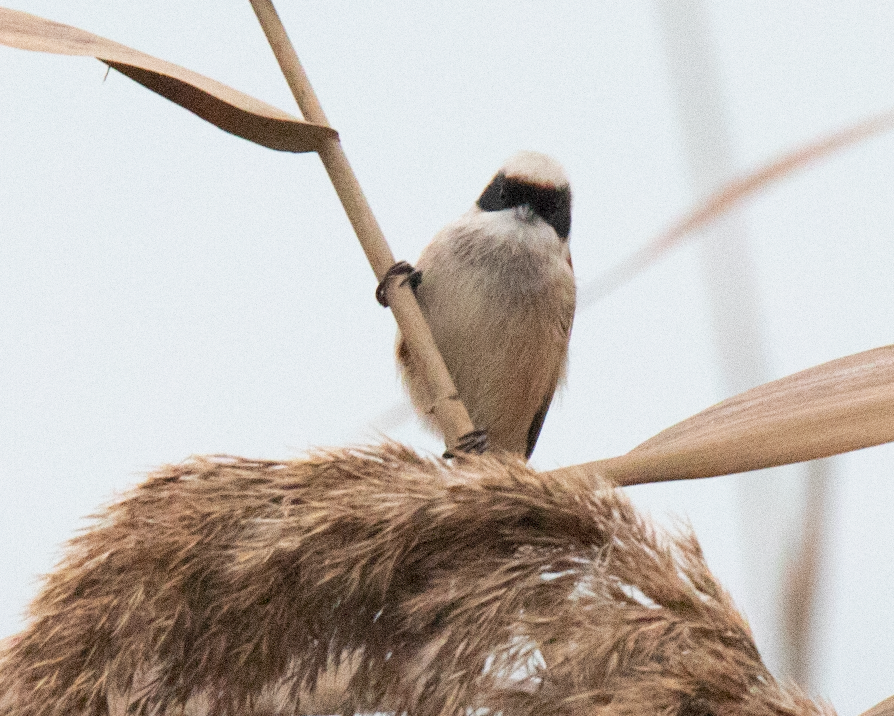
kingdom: Animalia
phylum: Chordata
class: Aves
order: Passeriformes
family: Remizidae
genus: Remiz
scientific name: Remiz pendulinus
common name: Eurasian penduline tit
